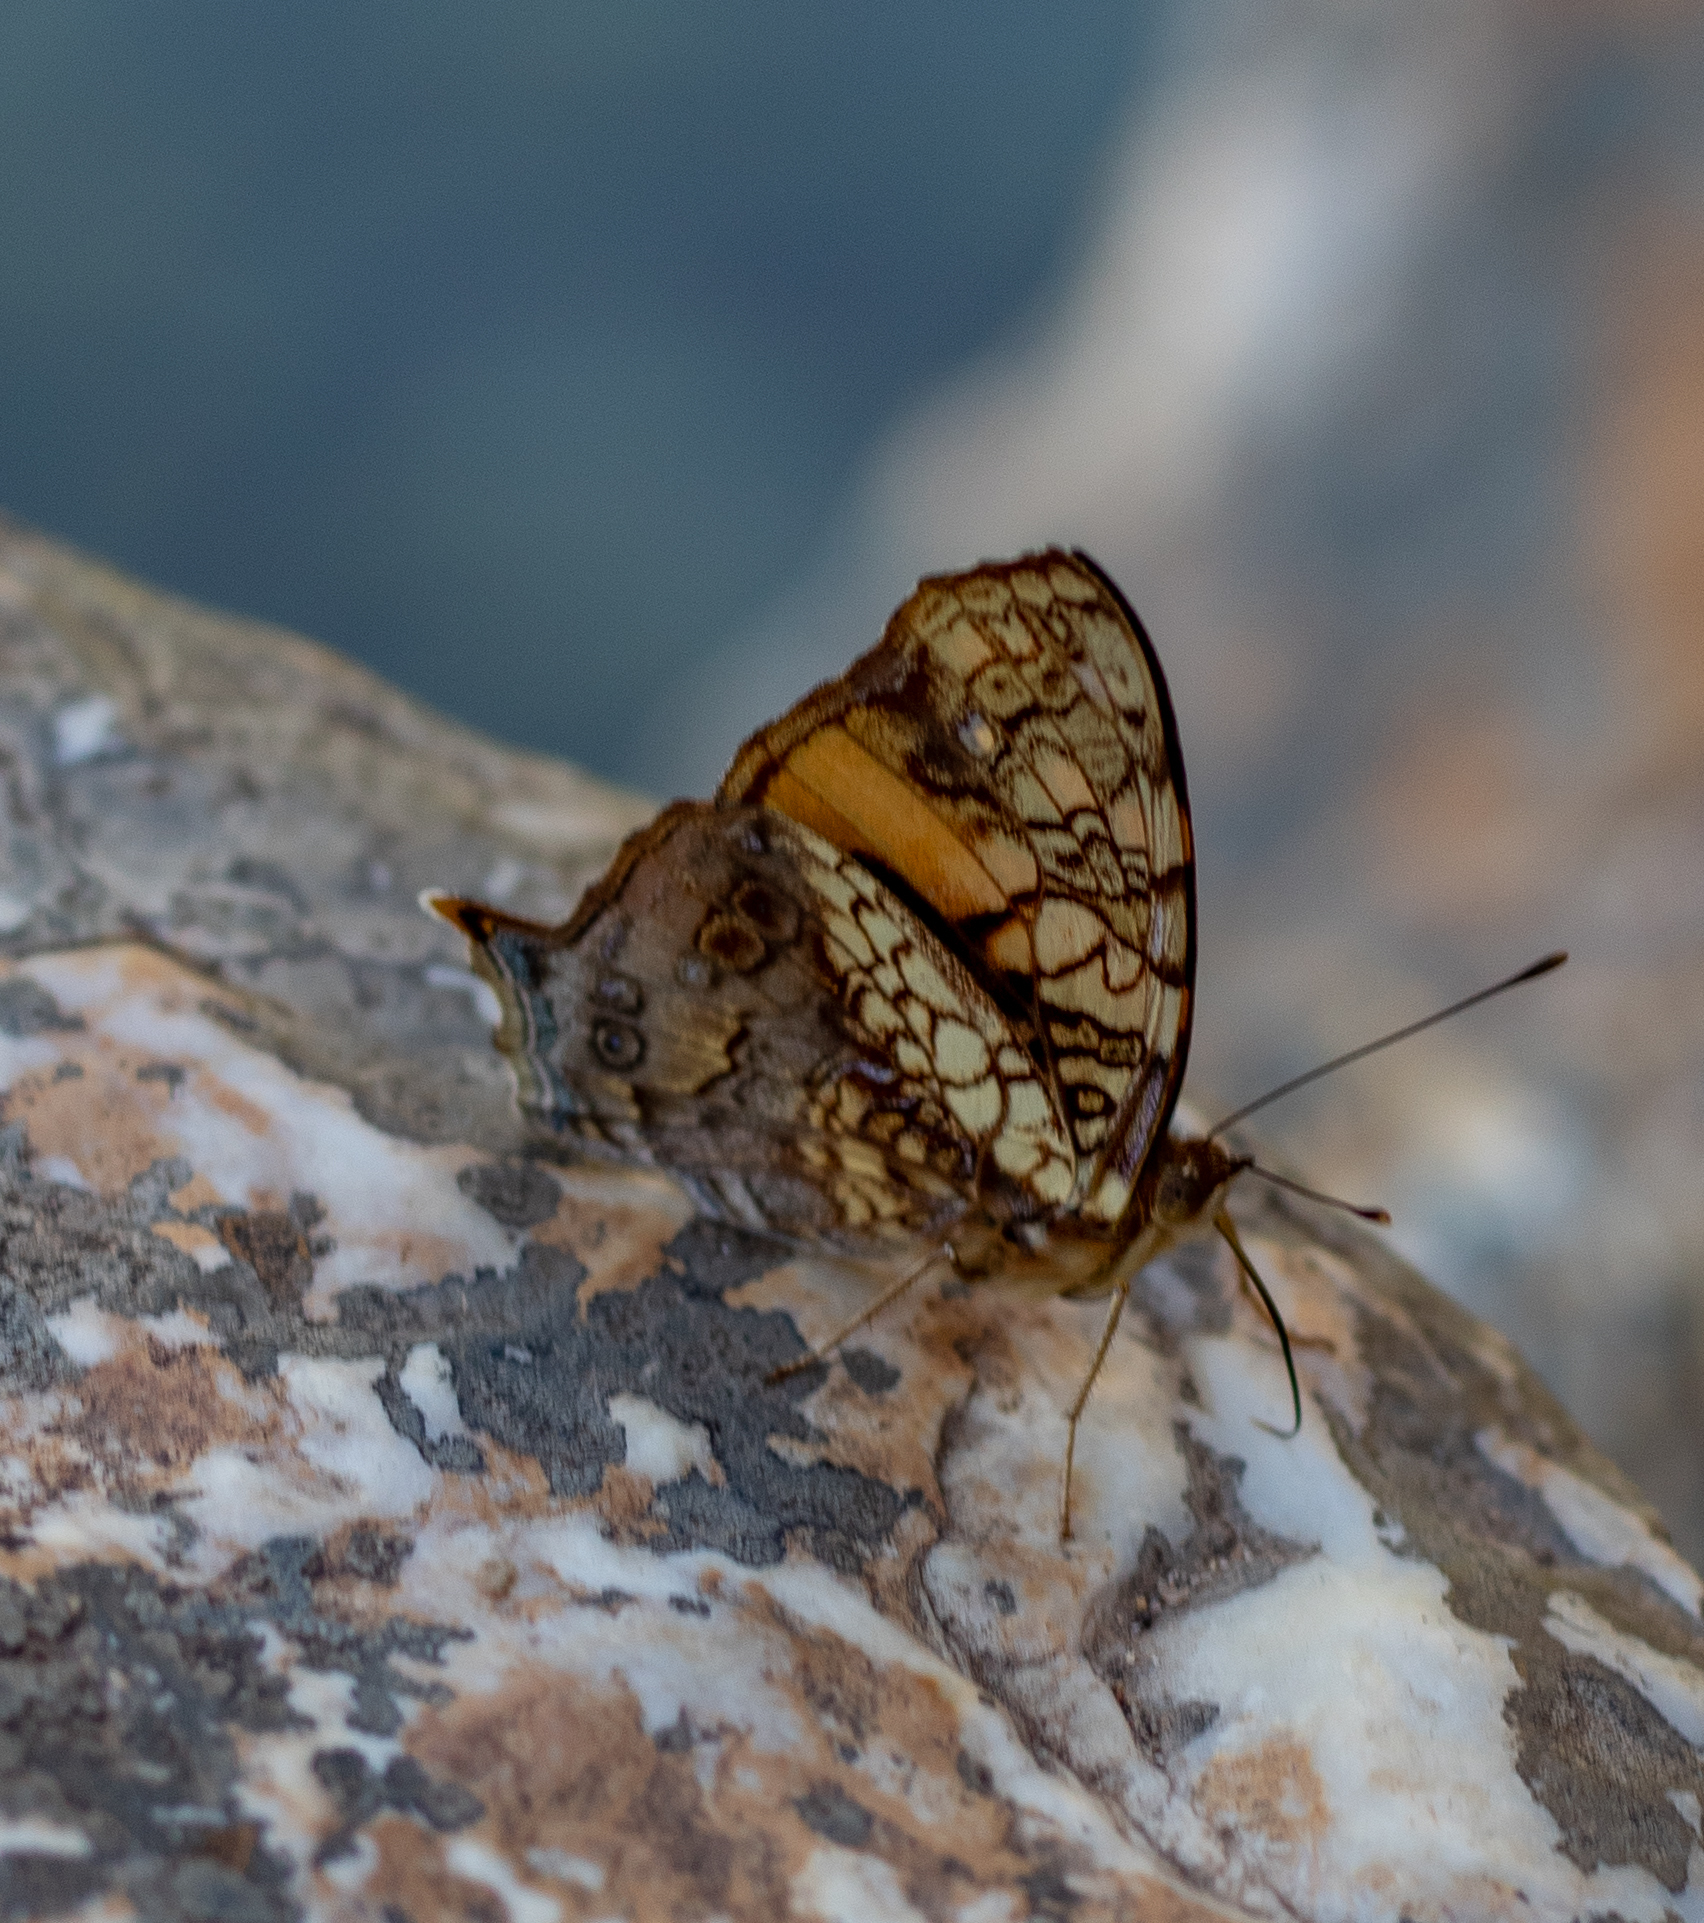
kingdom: Animalia
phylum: Arthropoda
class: Insecta
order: Lepidoptera
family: Nymphalidae
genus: Hypanartia
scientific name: Hypanartia lethe
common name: Orange mapwing
